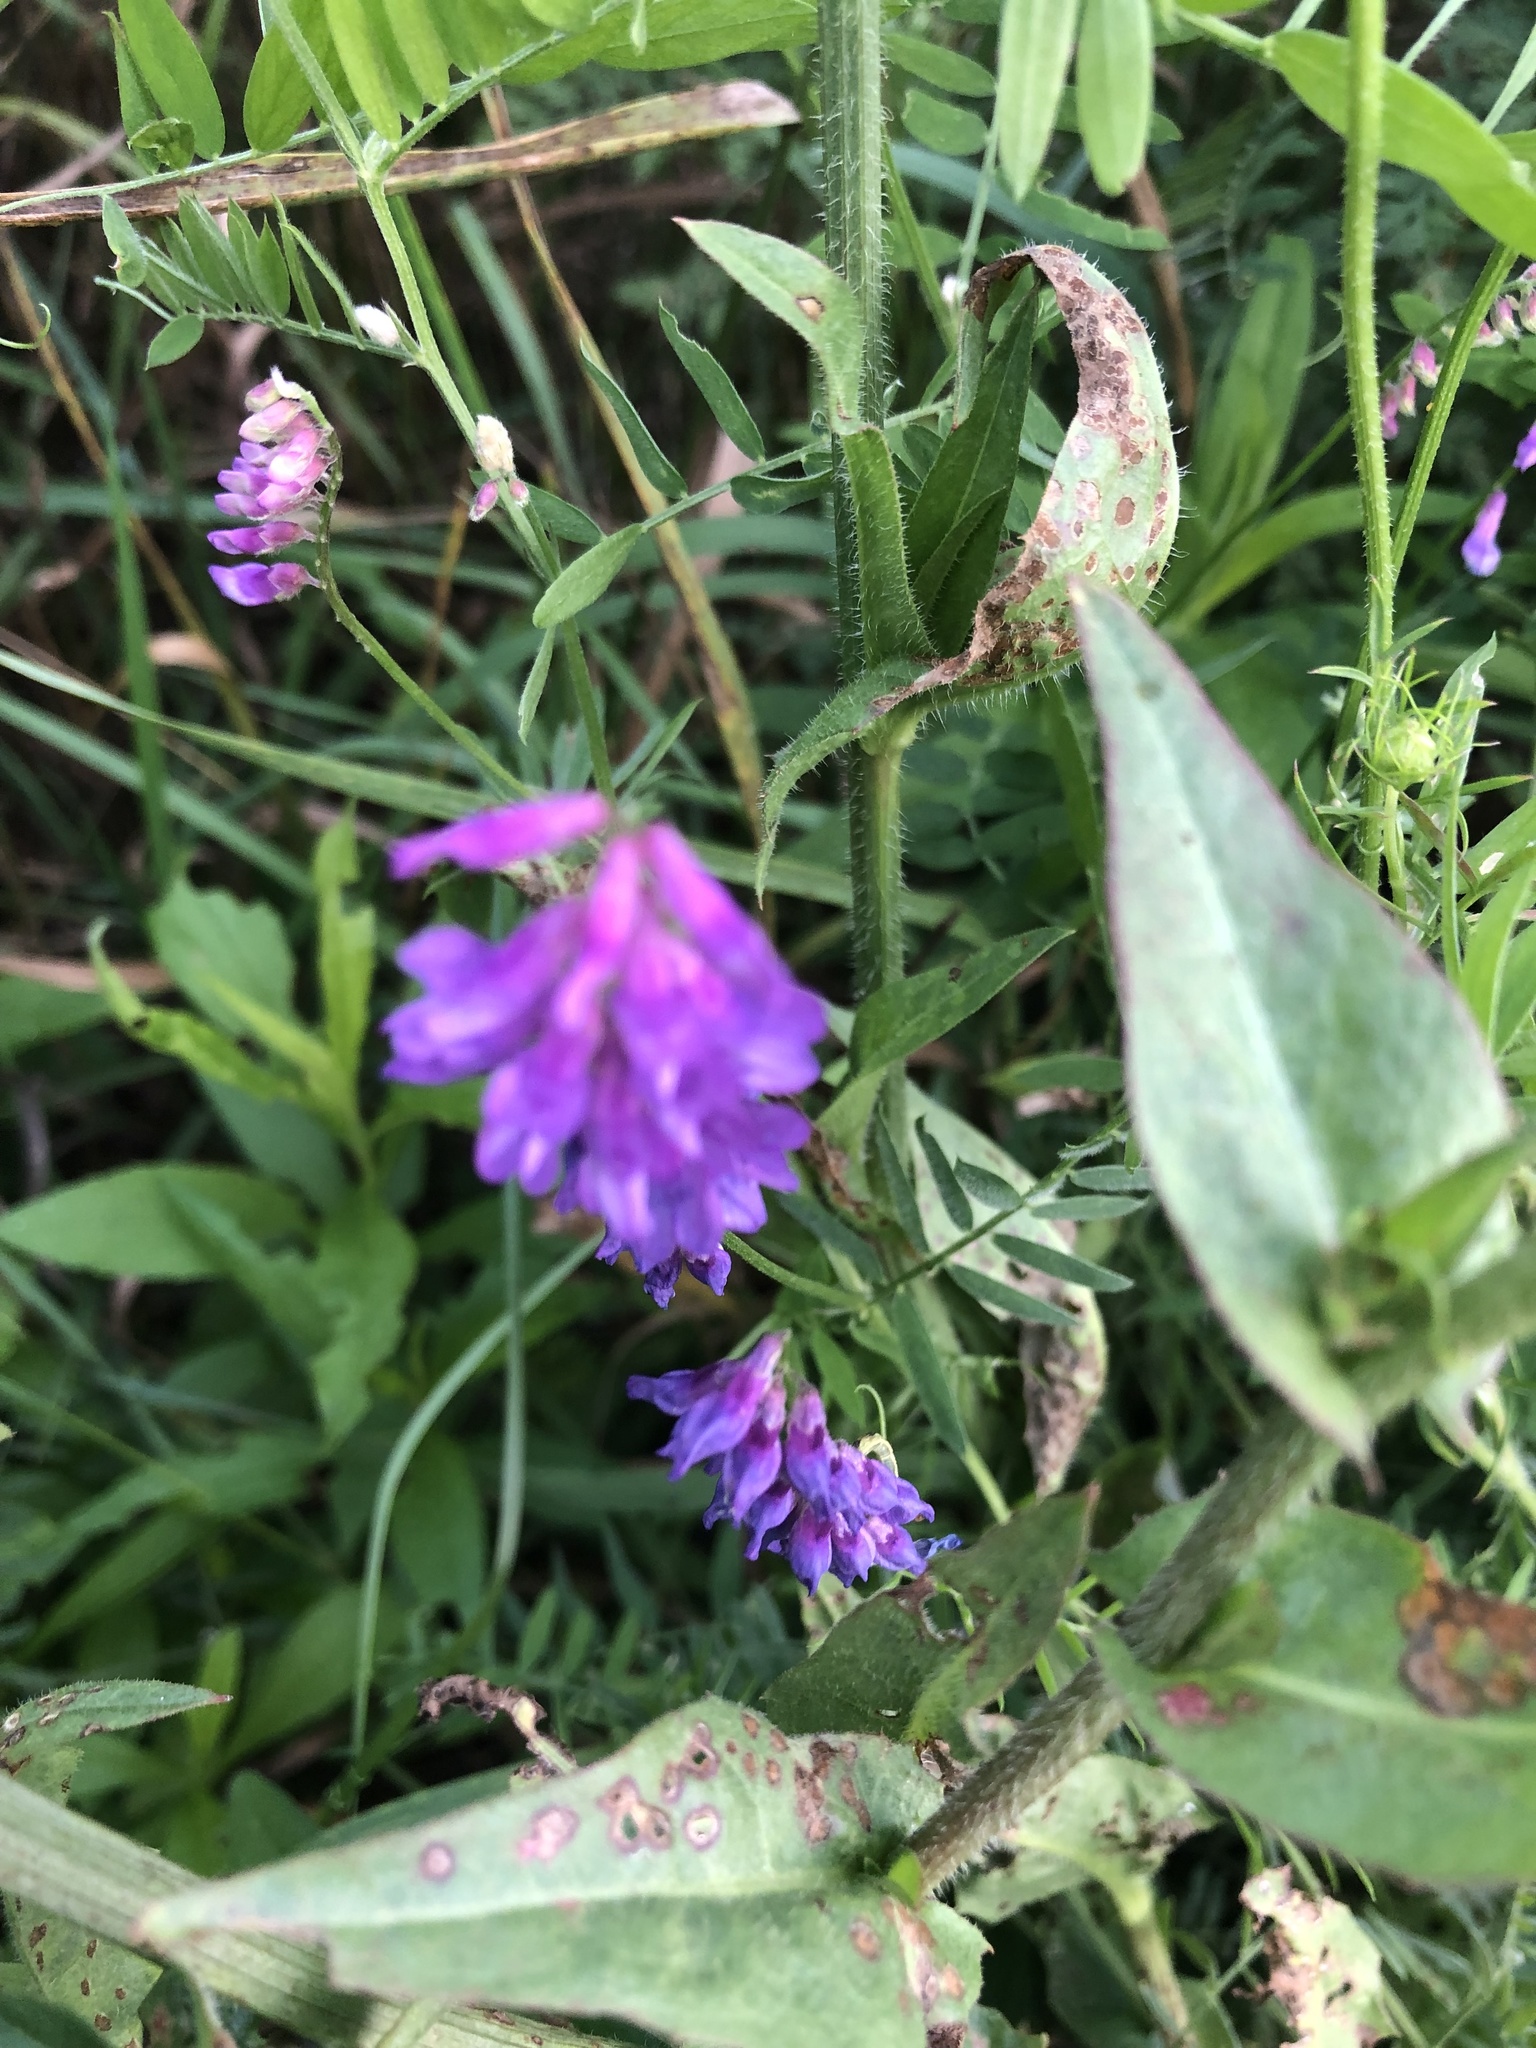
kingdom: Plantae
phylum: Tracheophyta
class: Magnoliopsida
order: Fabales
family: Fabaceae
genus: Vicia
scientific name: Vicia cracca
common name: Bird vetch
